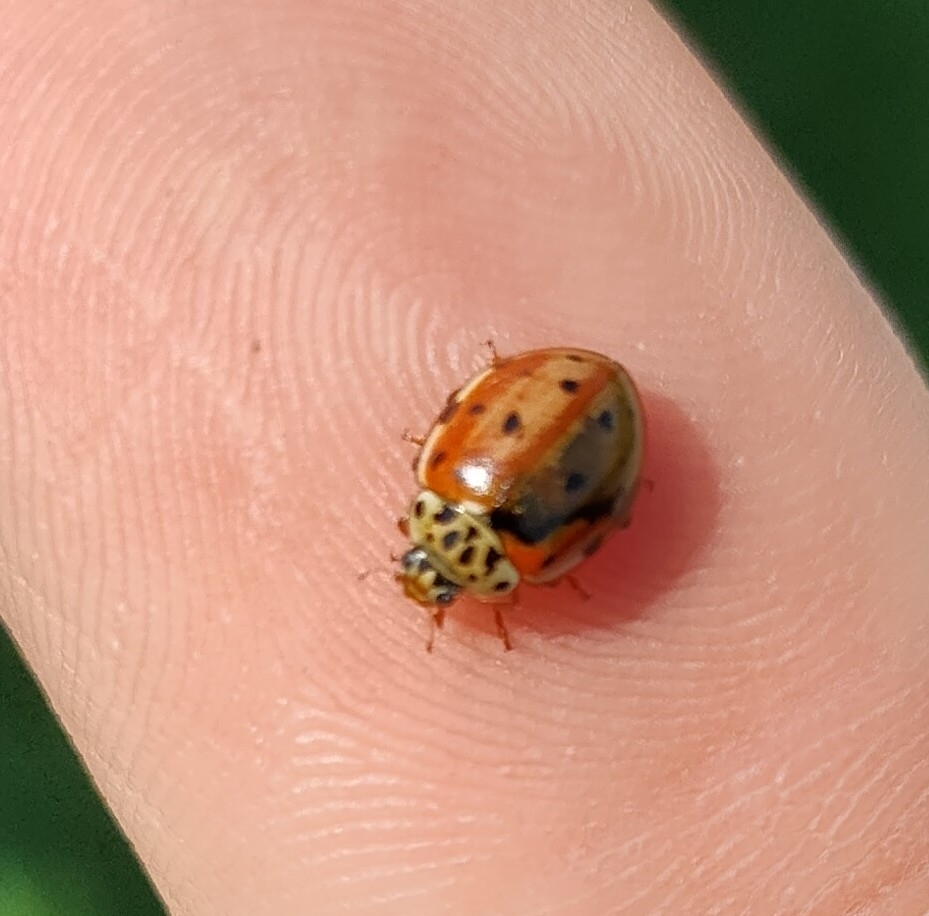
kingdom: Animalia
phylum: Arthropoda
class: Insecta
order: Coleoptera
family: Coccinellidae
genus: Harmonia
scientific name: Harmonia quadripunctata
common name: Cream-streaked ladybird
